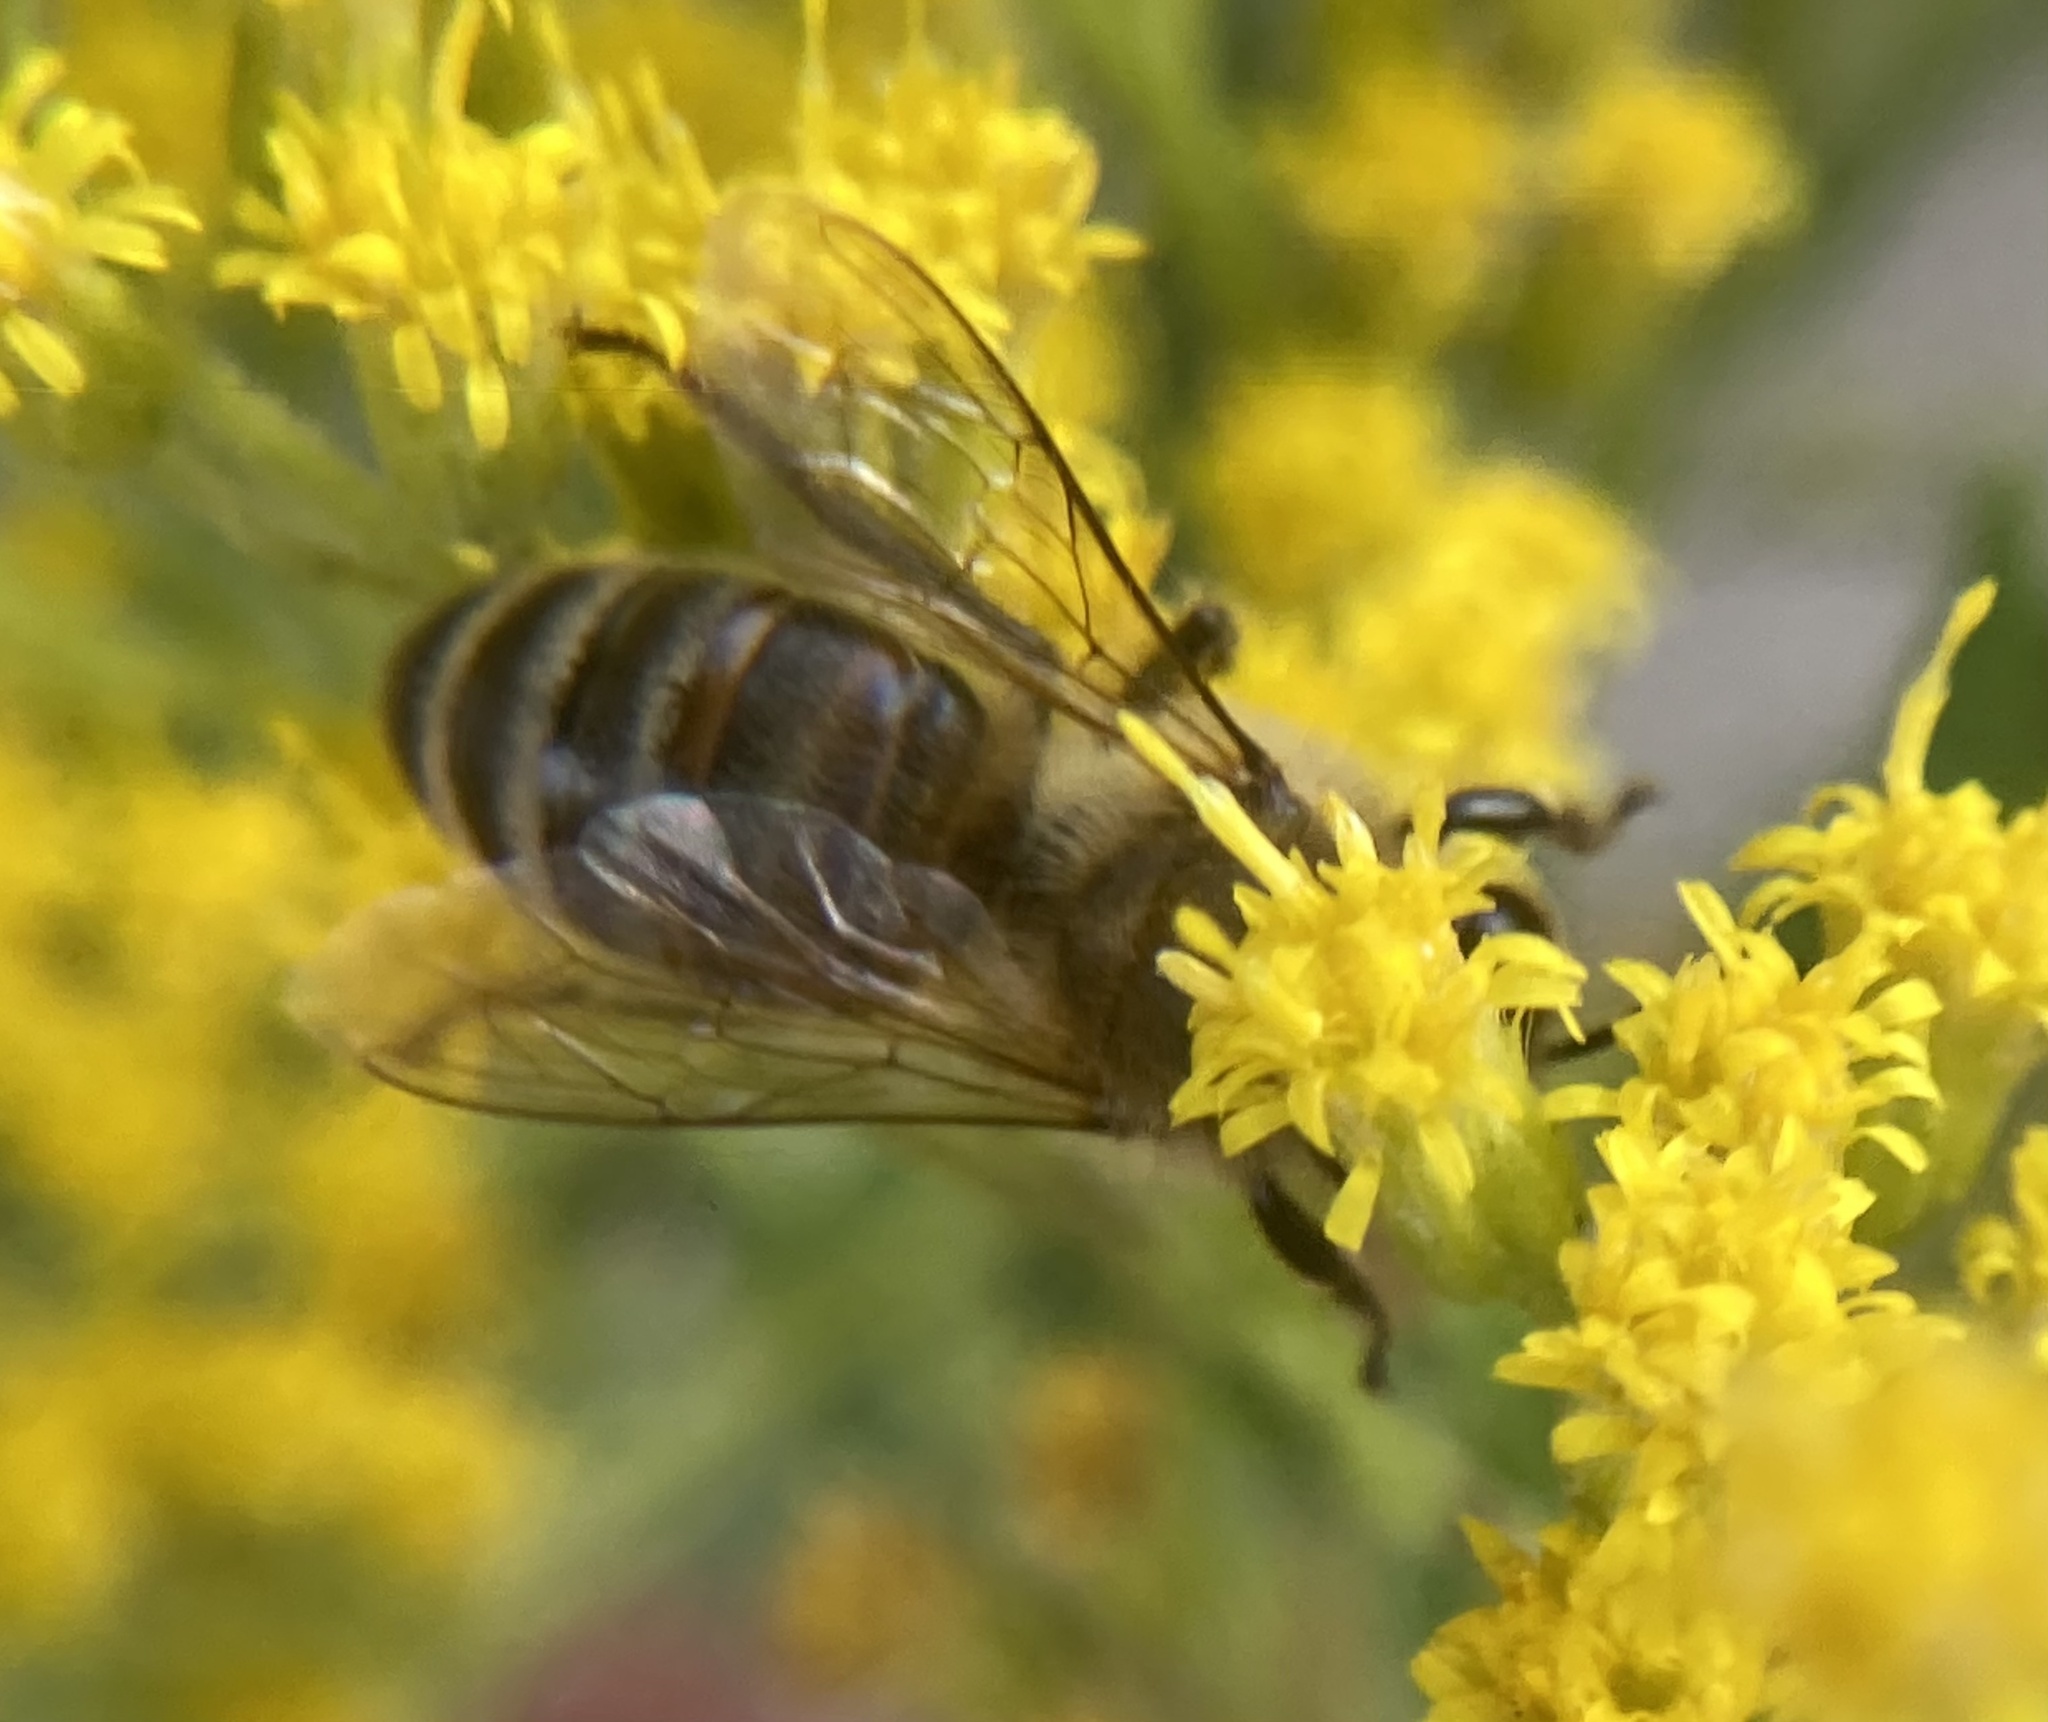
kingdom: Animalia
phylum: Arthropoda
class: Insecta
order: Hymenoptera
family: Apidae
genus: Apis
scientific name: Apis mellifera
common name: Honey bee
